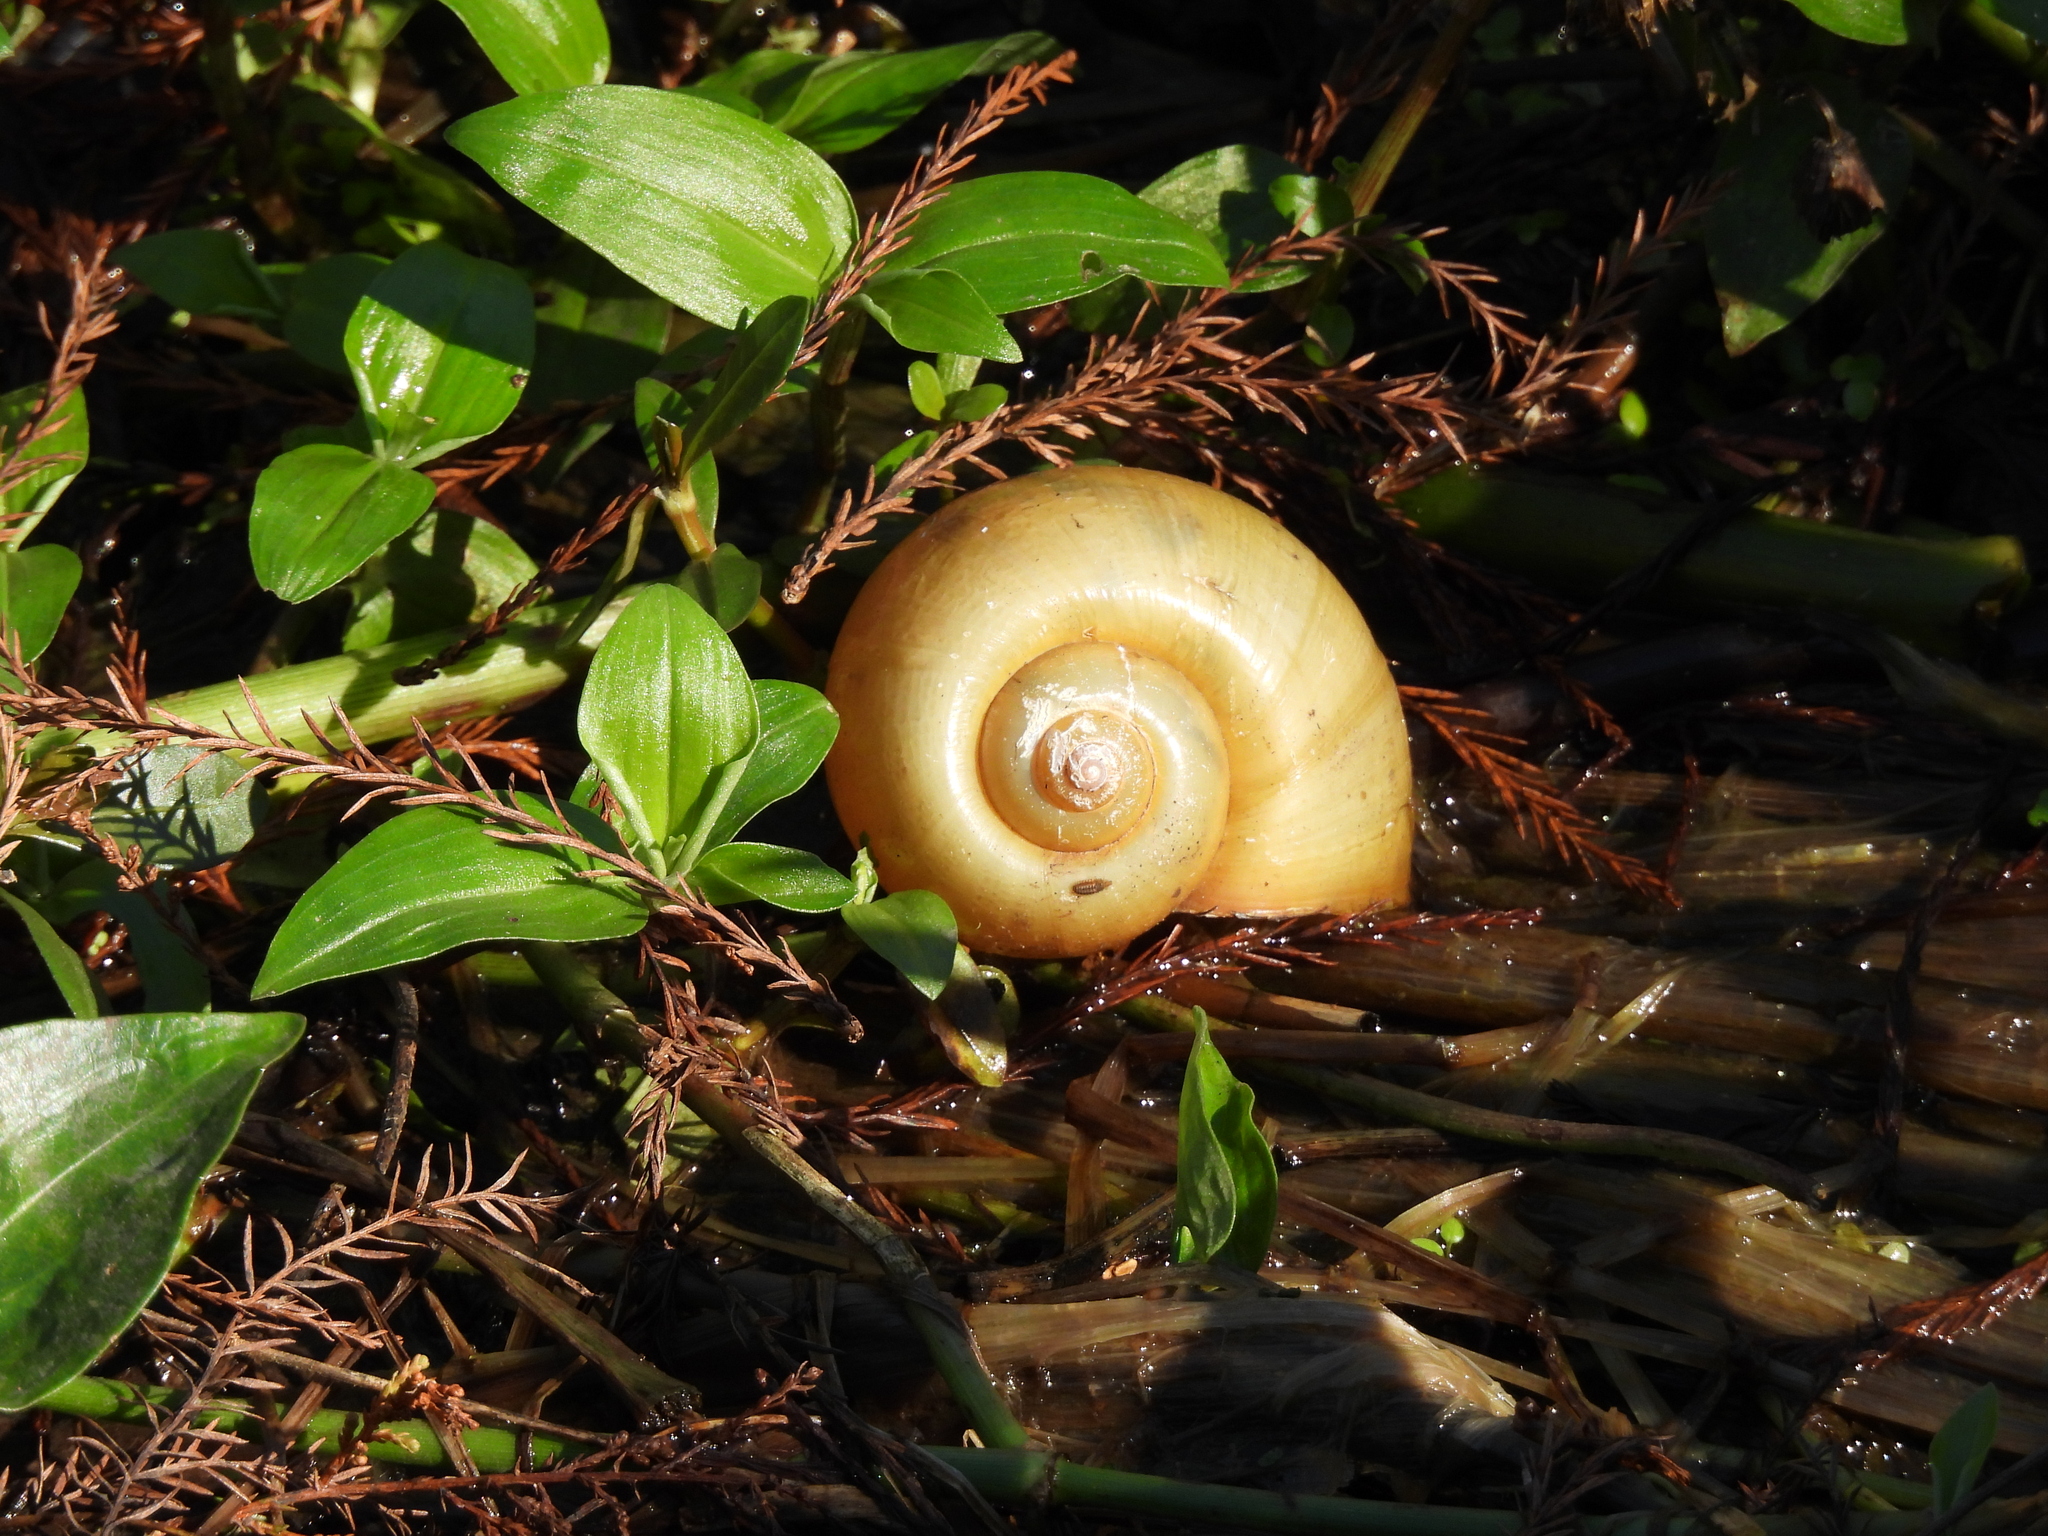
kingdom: Animalia
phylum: Mollusca
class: Gastropoda
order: Architaenioglossa
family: Ampullariidae
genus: Pomacea
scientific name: Pomacea maculata
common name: Giant applesnail
